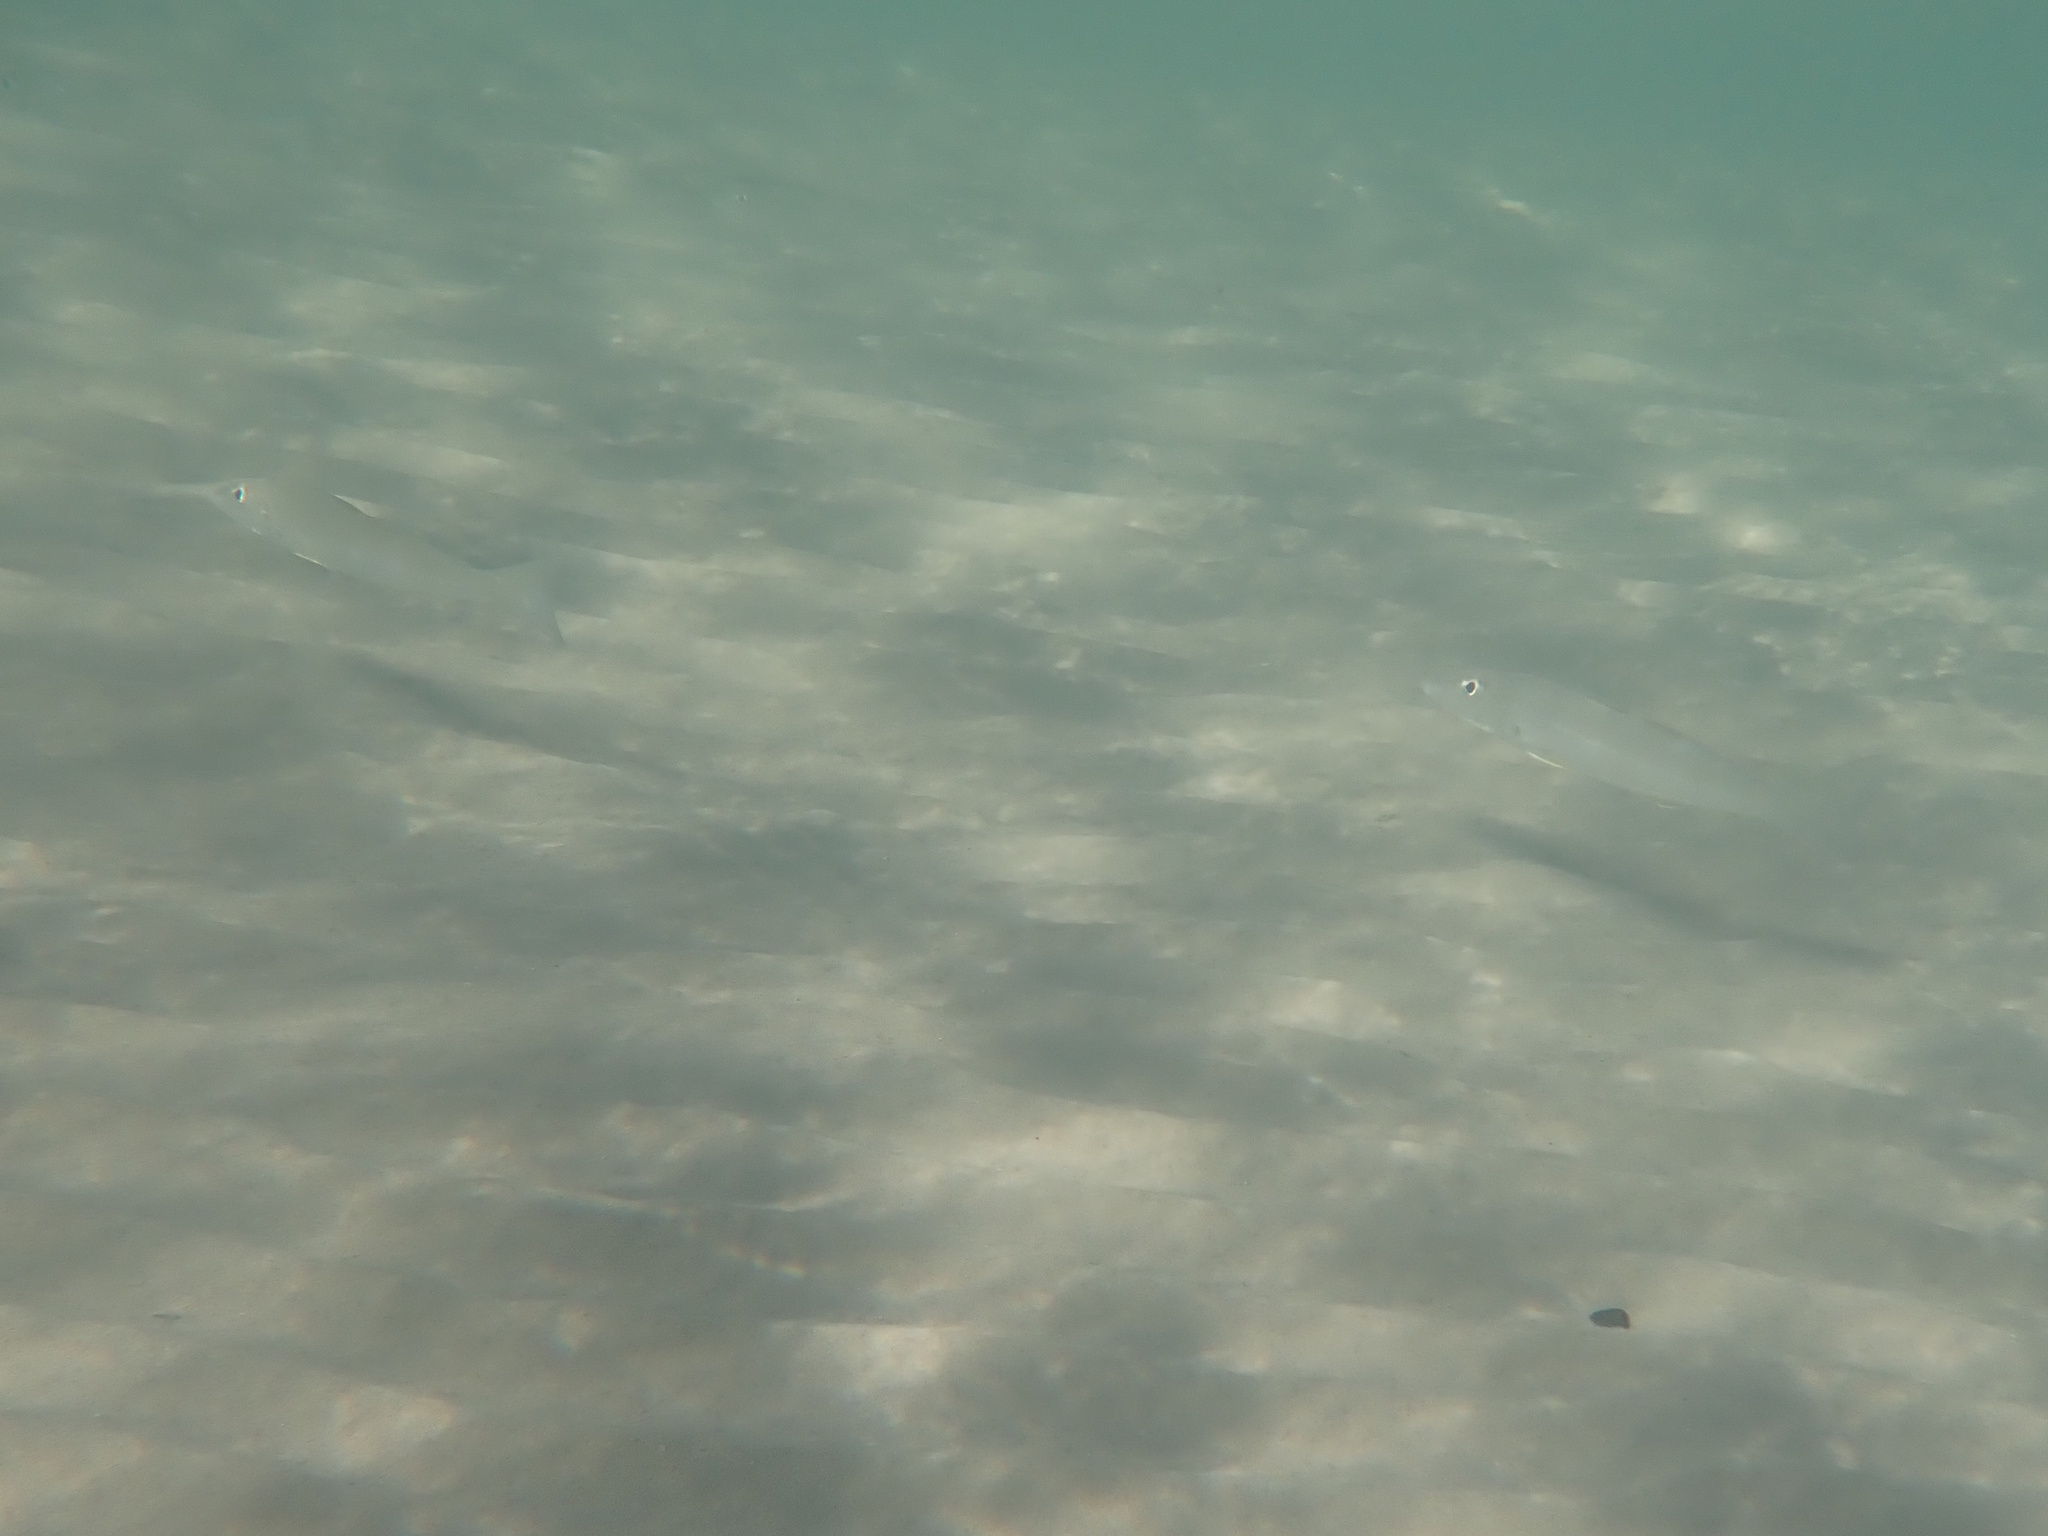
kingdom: Animalia
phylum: Chordata
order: Perciformes
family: Sillaginidae
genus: Sillago
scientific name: Sillago ciliata
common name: Sand sillago
